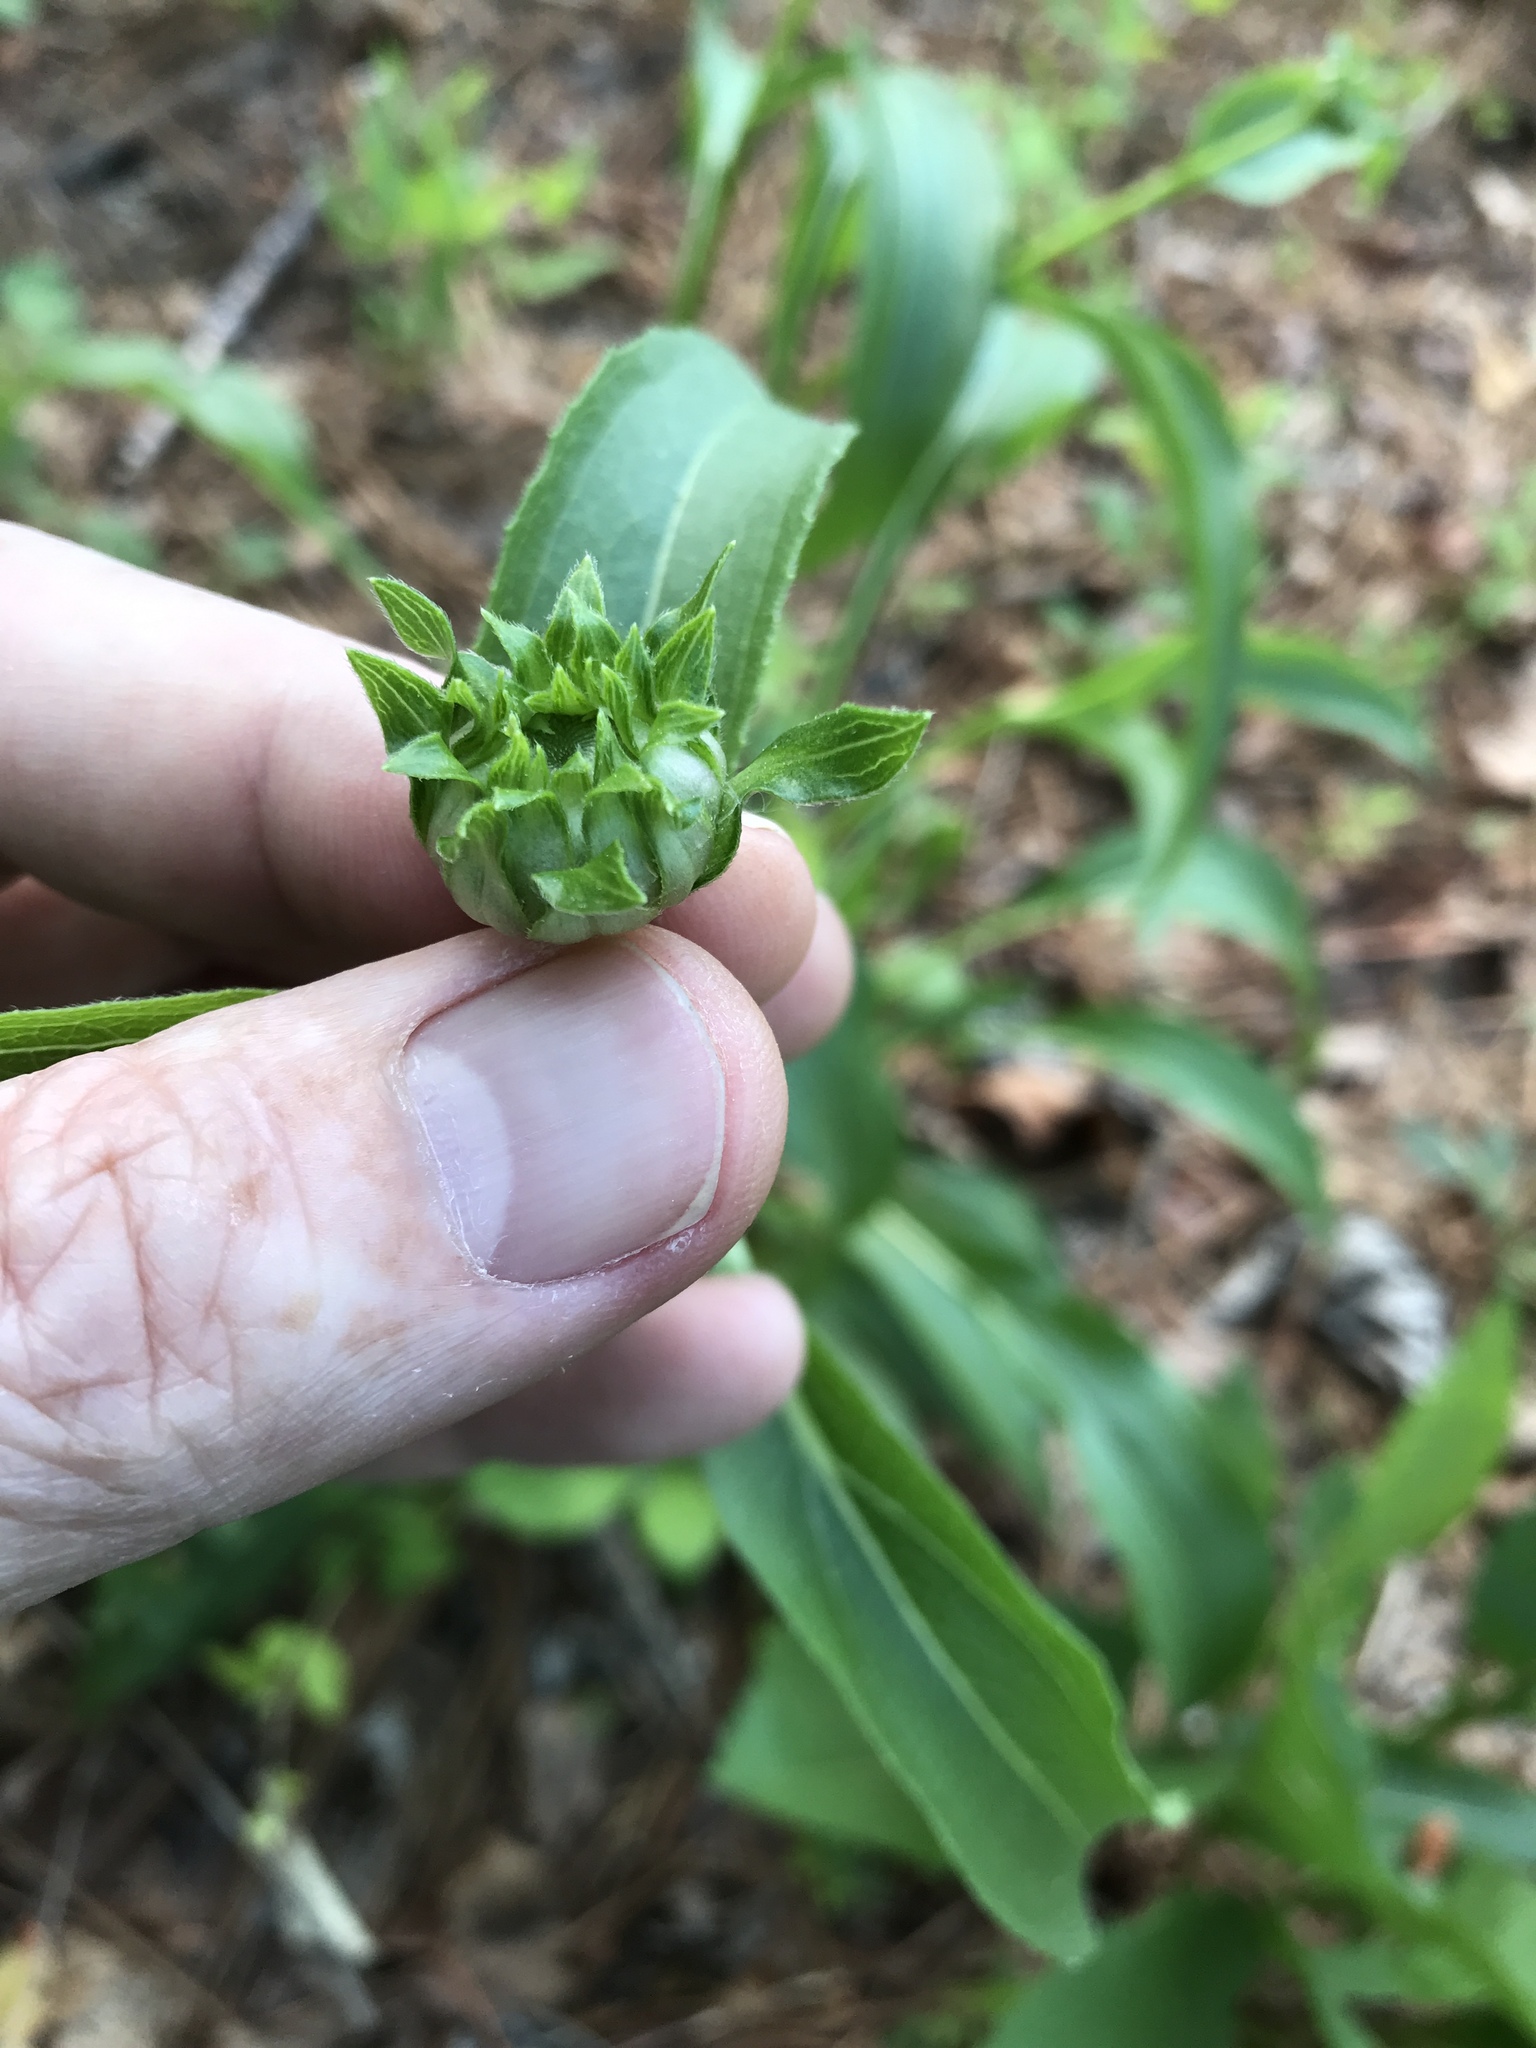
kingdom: Plantae
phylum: Tracheophyta
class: Magnoliopsida
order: Asterales
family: Asteraceae
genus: Echinacea
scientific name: Echinacea laevigata
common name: Smooth coneflower
